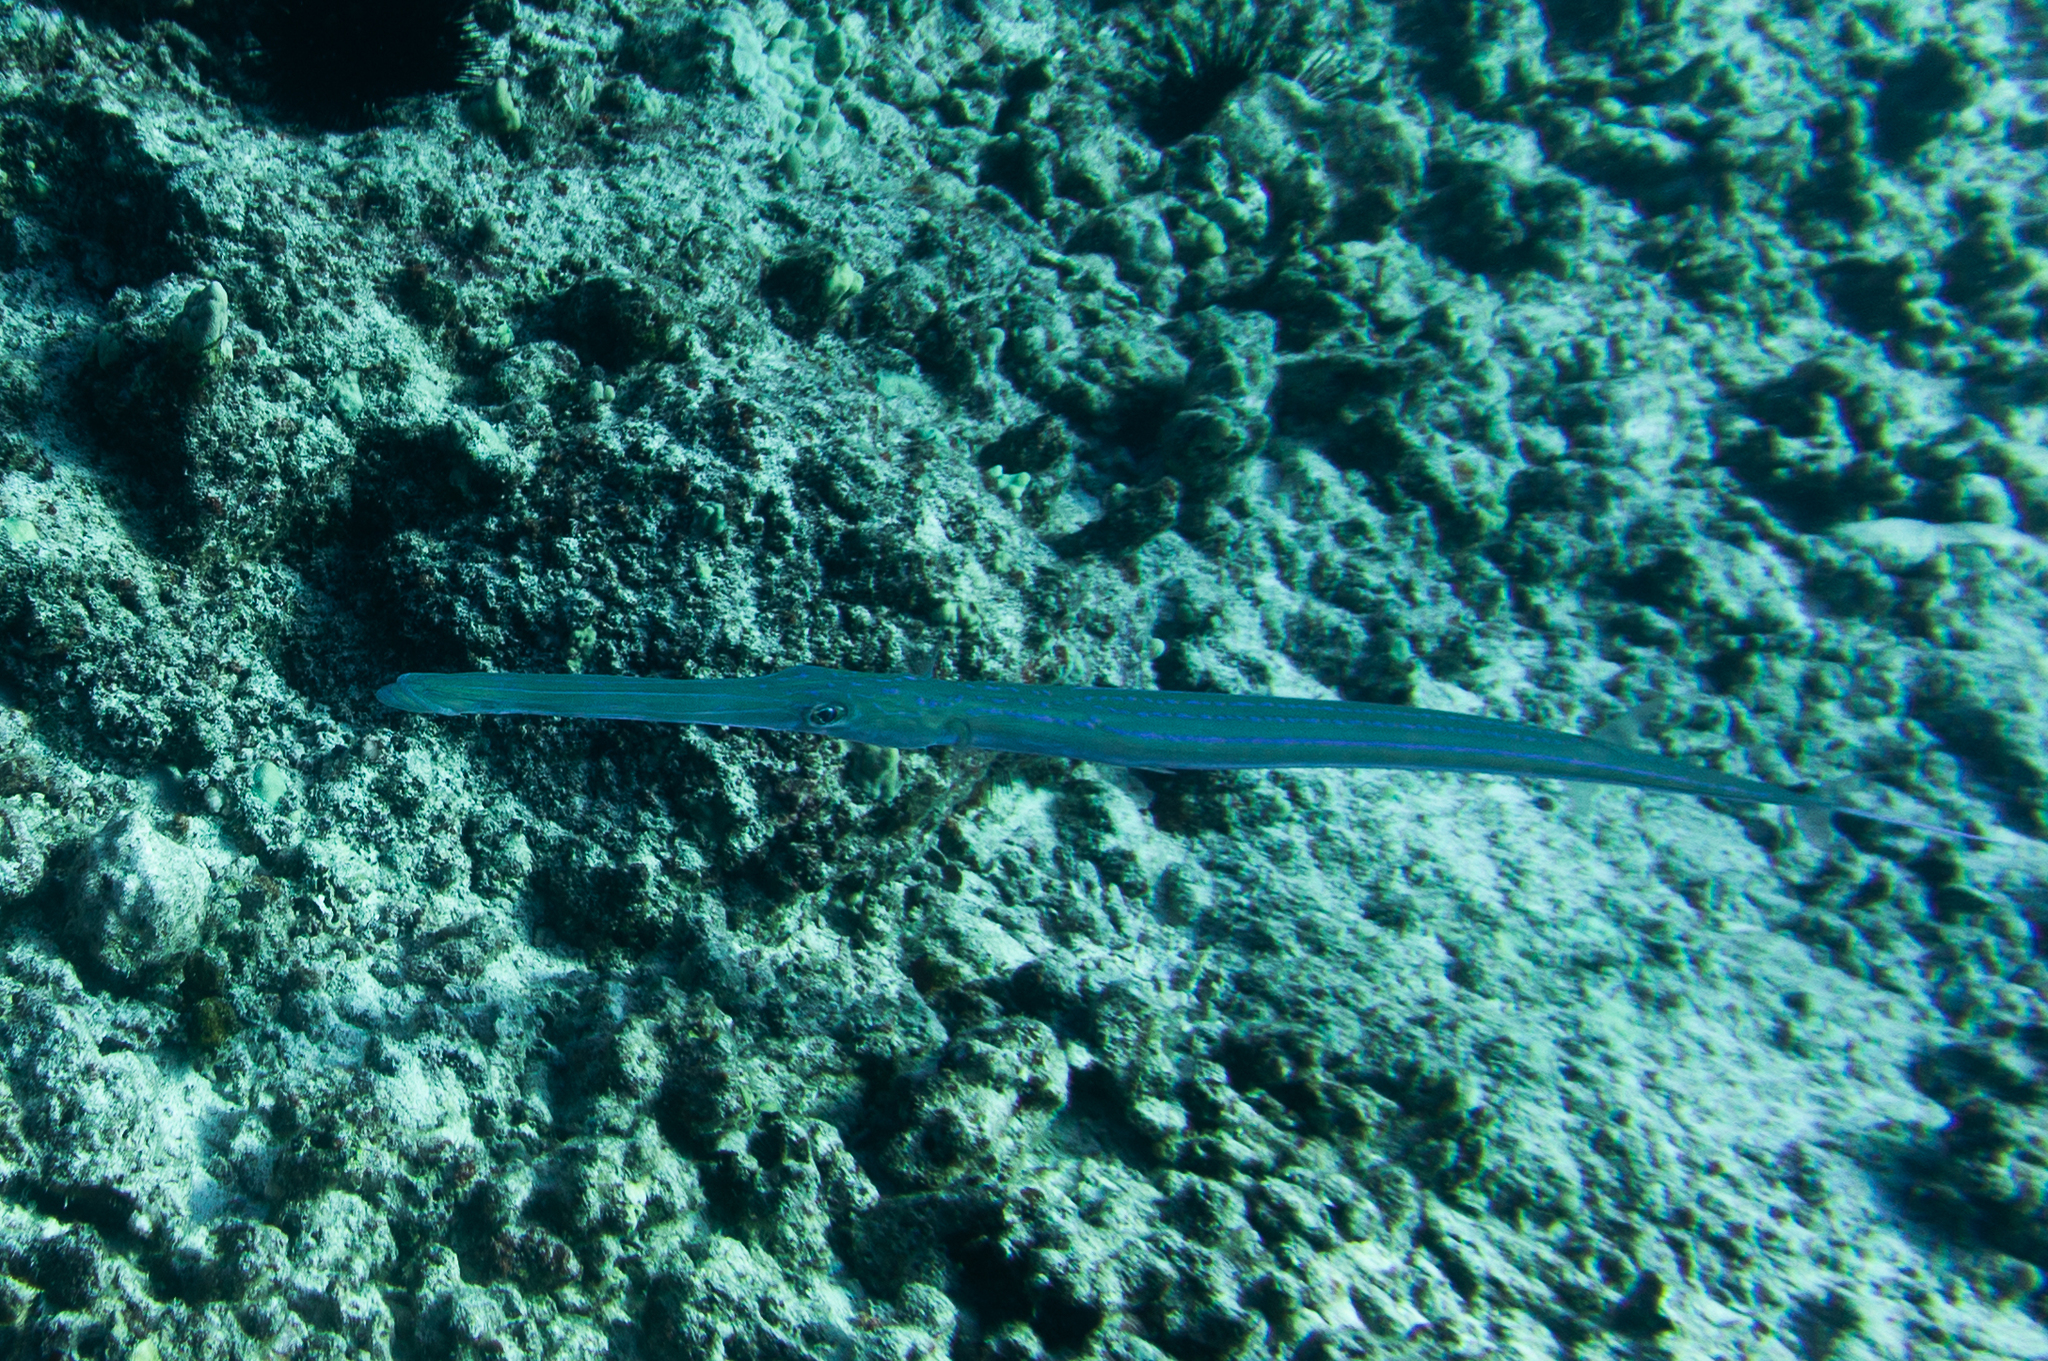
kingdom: Animalia
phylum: Chordata
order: Syngnathiformes
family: Fistulariidae
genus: Fistularia
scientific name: Fistularia commersonii
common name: Bluespotted cornetfish
